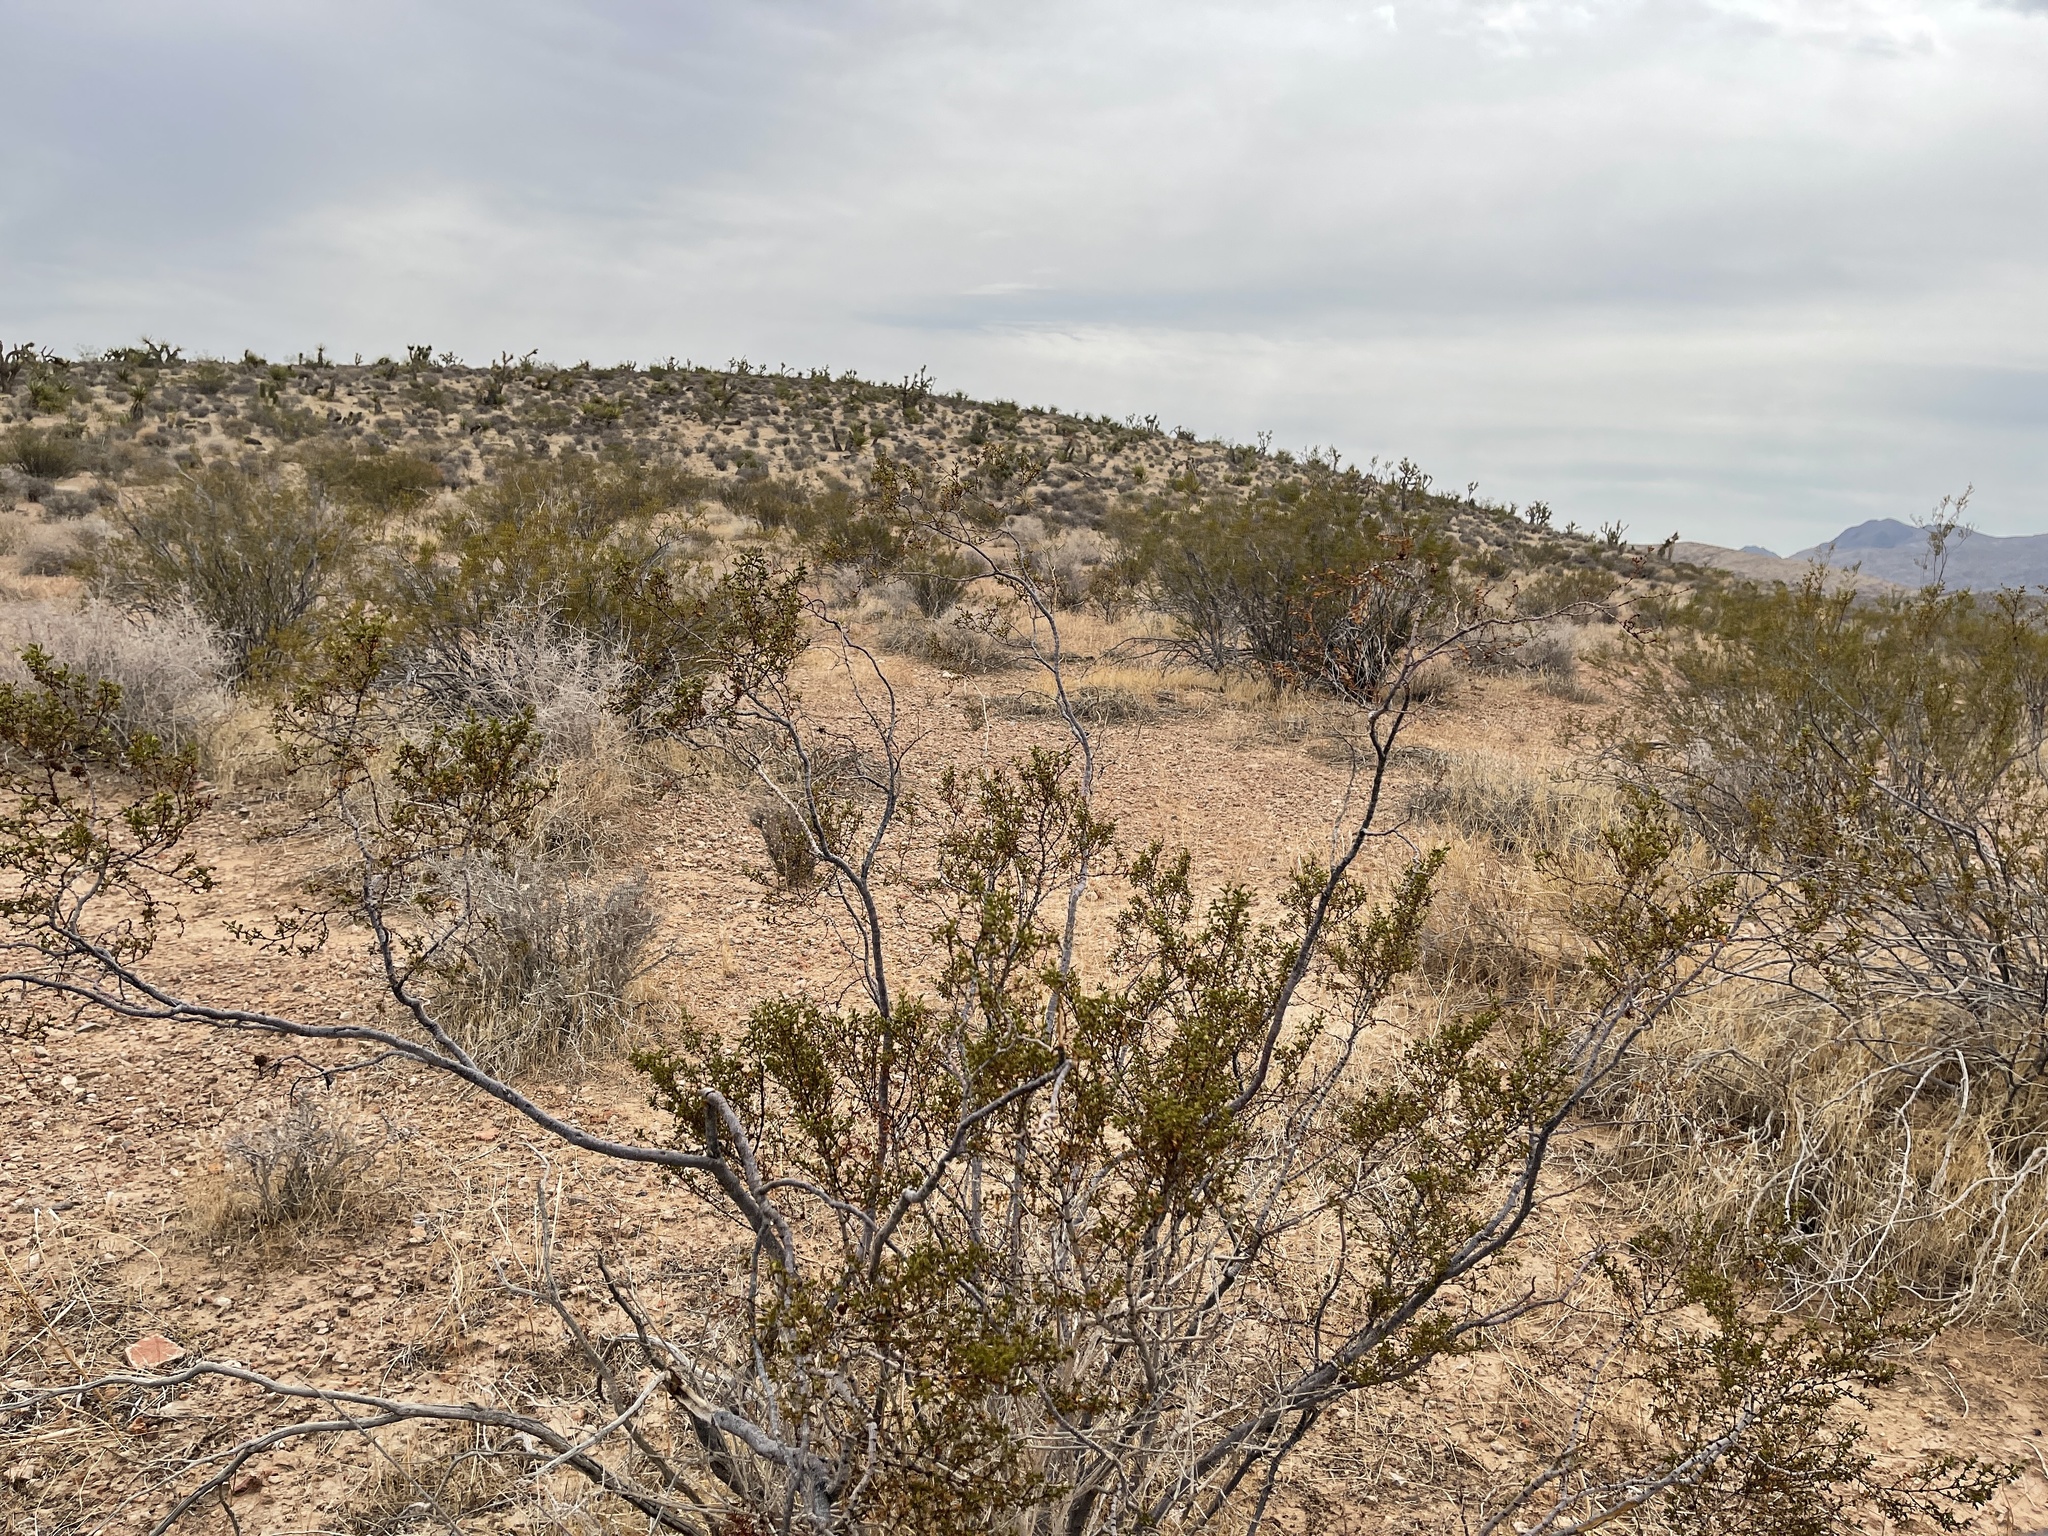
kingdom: Plantae
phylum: Tracheophyta
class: Magnoliopsida
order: Zygophyllales
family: Zygophyllaceae
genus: Larrea
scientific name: Larrea tridentata
